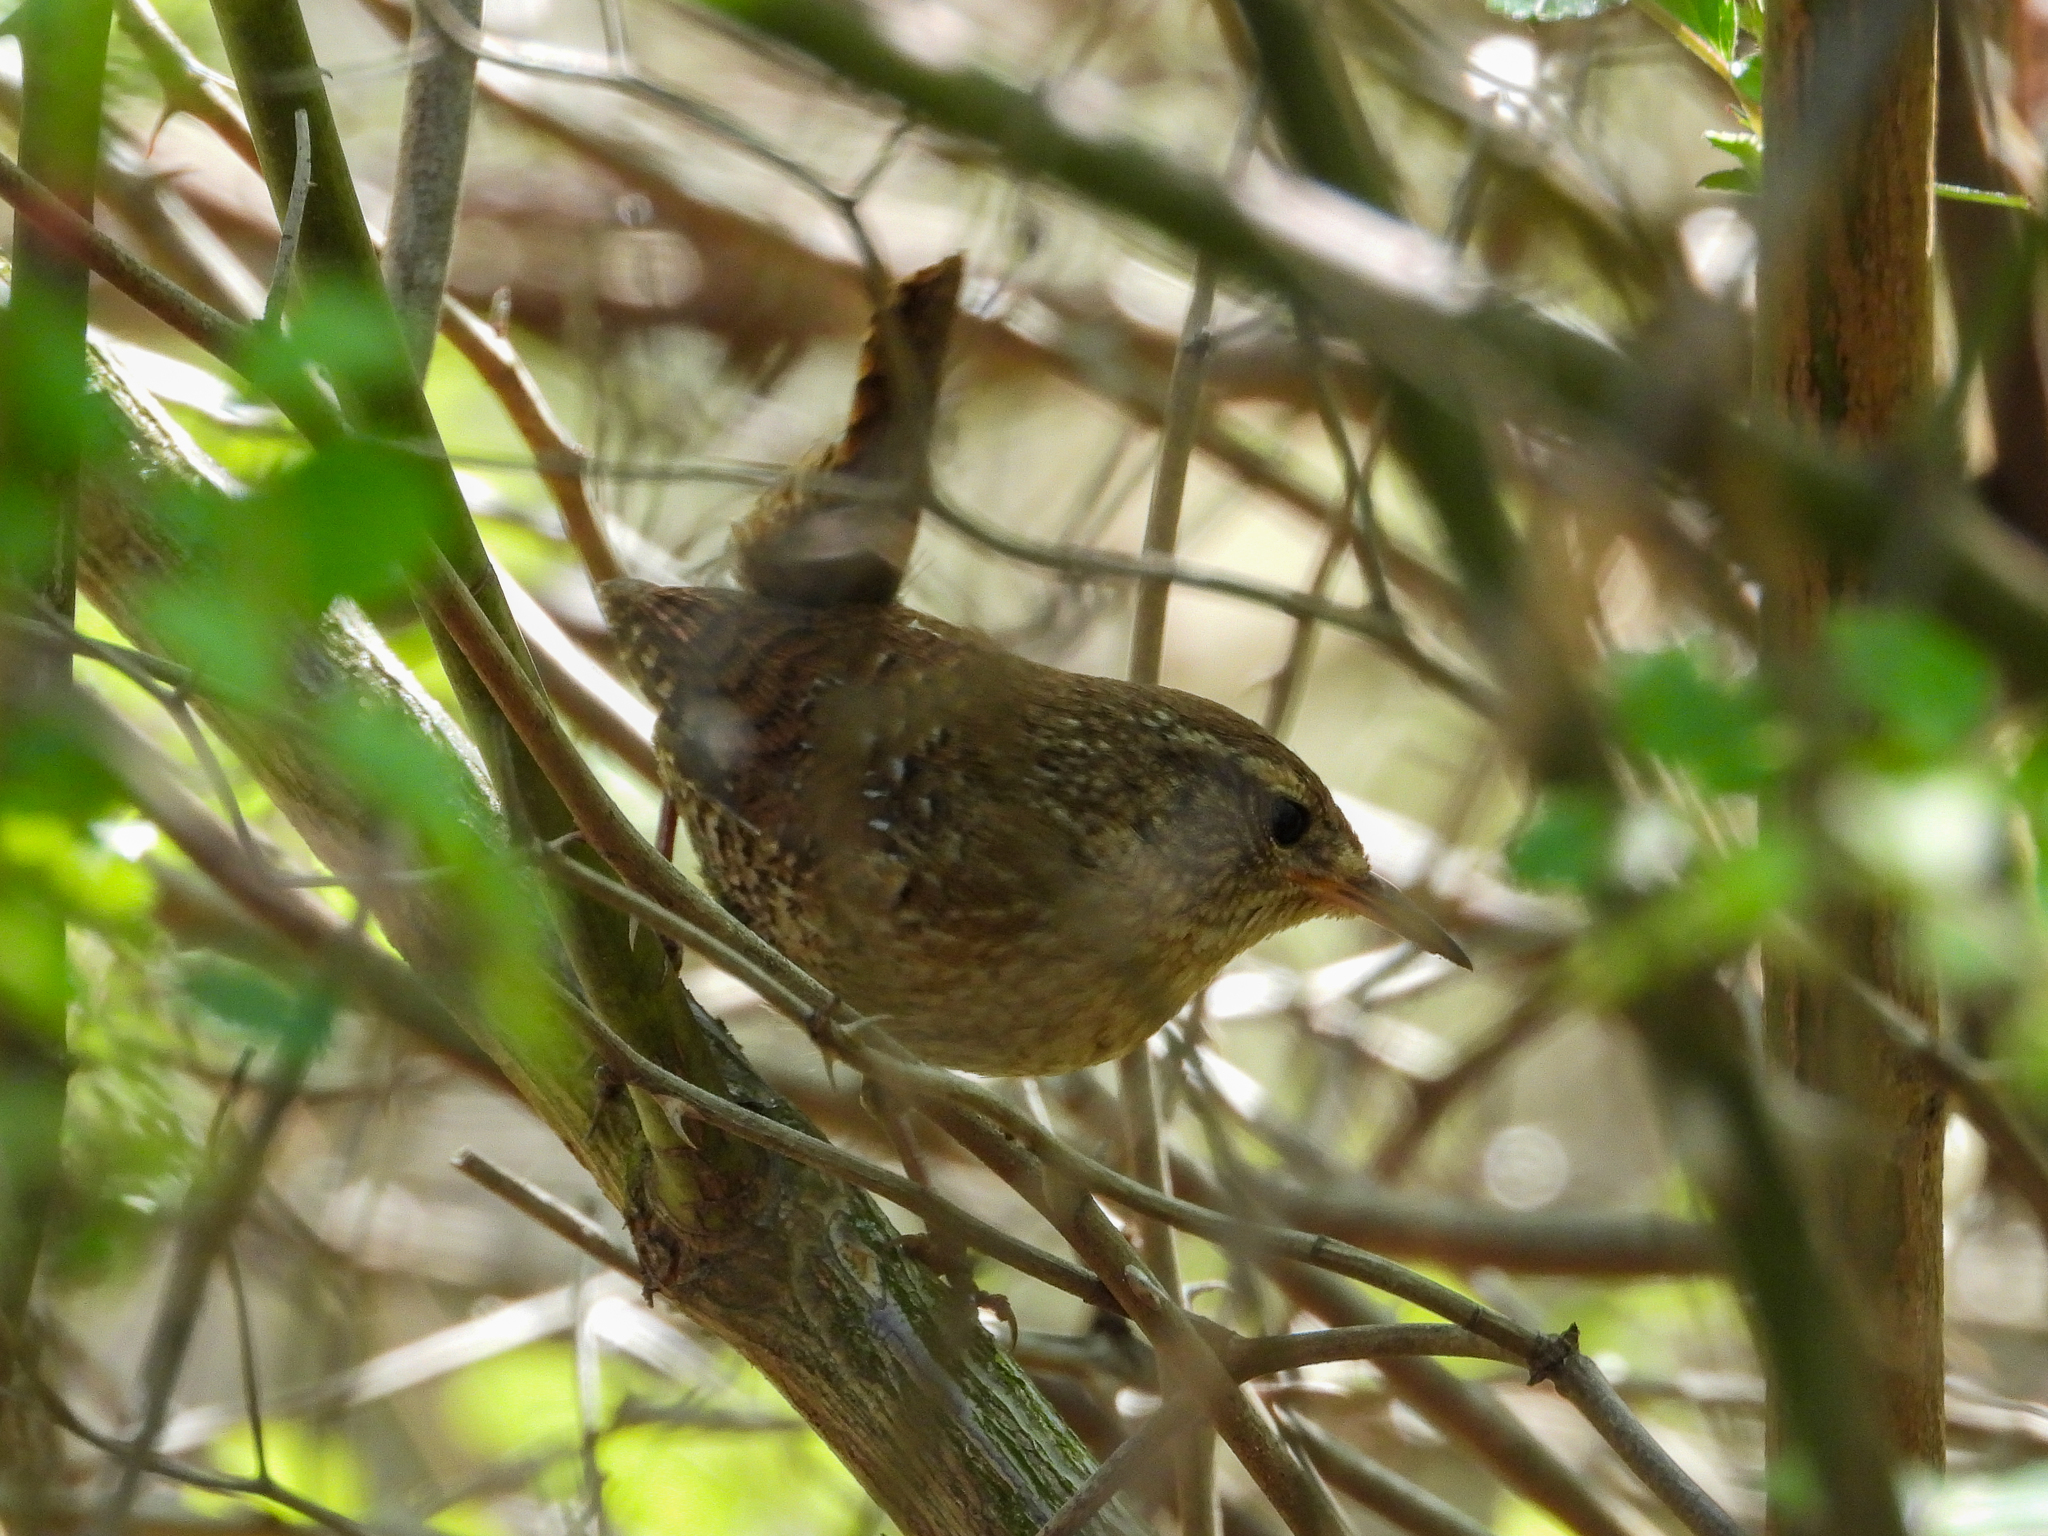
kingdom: Animalia
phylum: Chordata
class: Aves
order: Passeriformes
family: Troglodytidae
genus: Troglodytes
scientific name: Troglodytes hiemalis
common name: Winter wren
